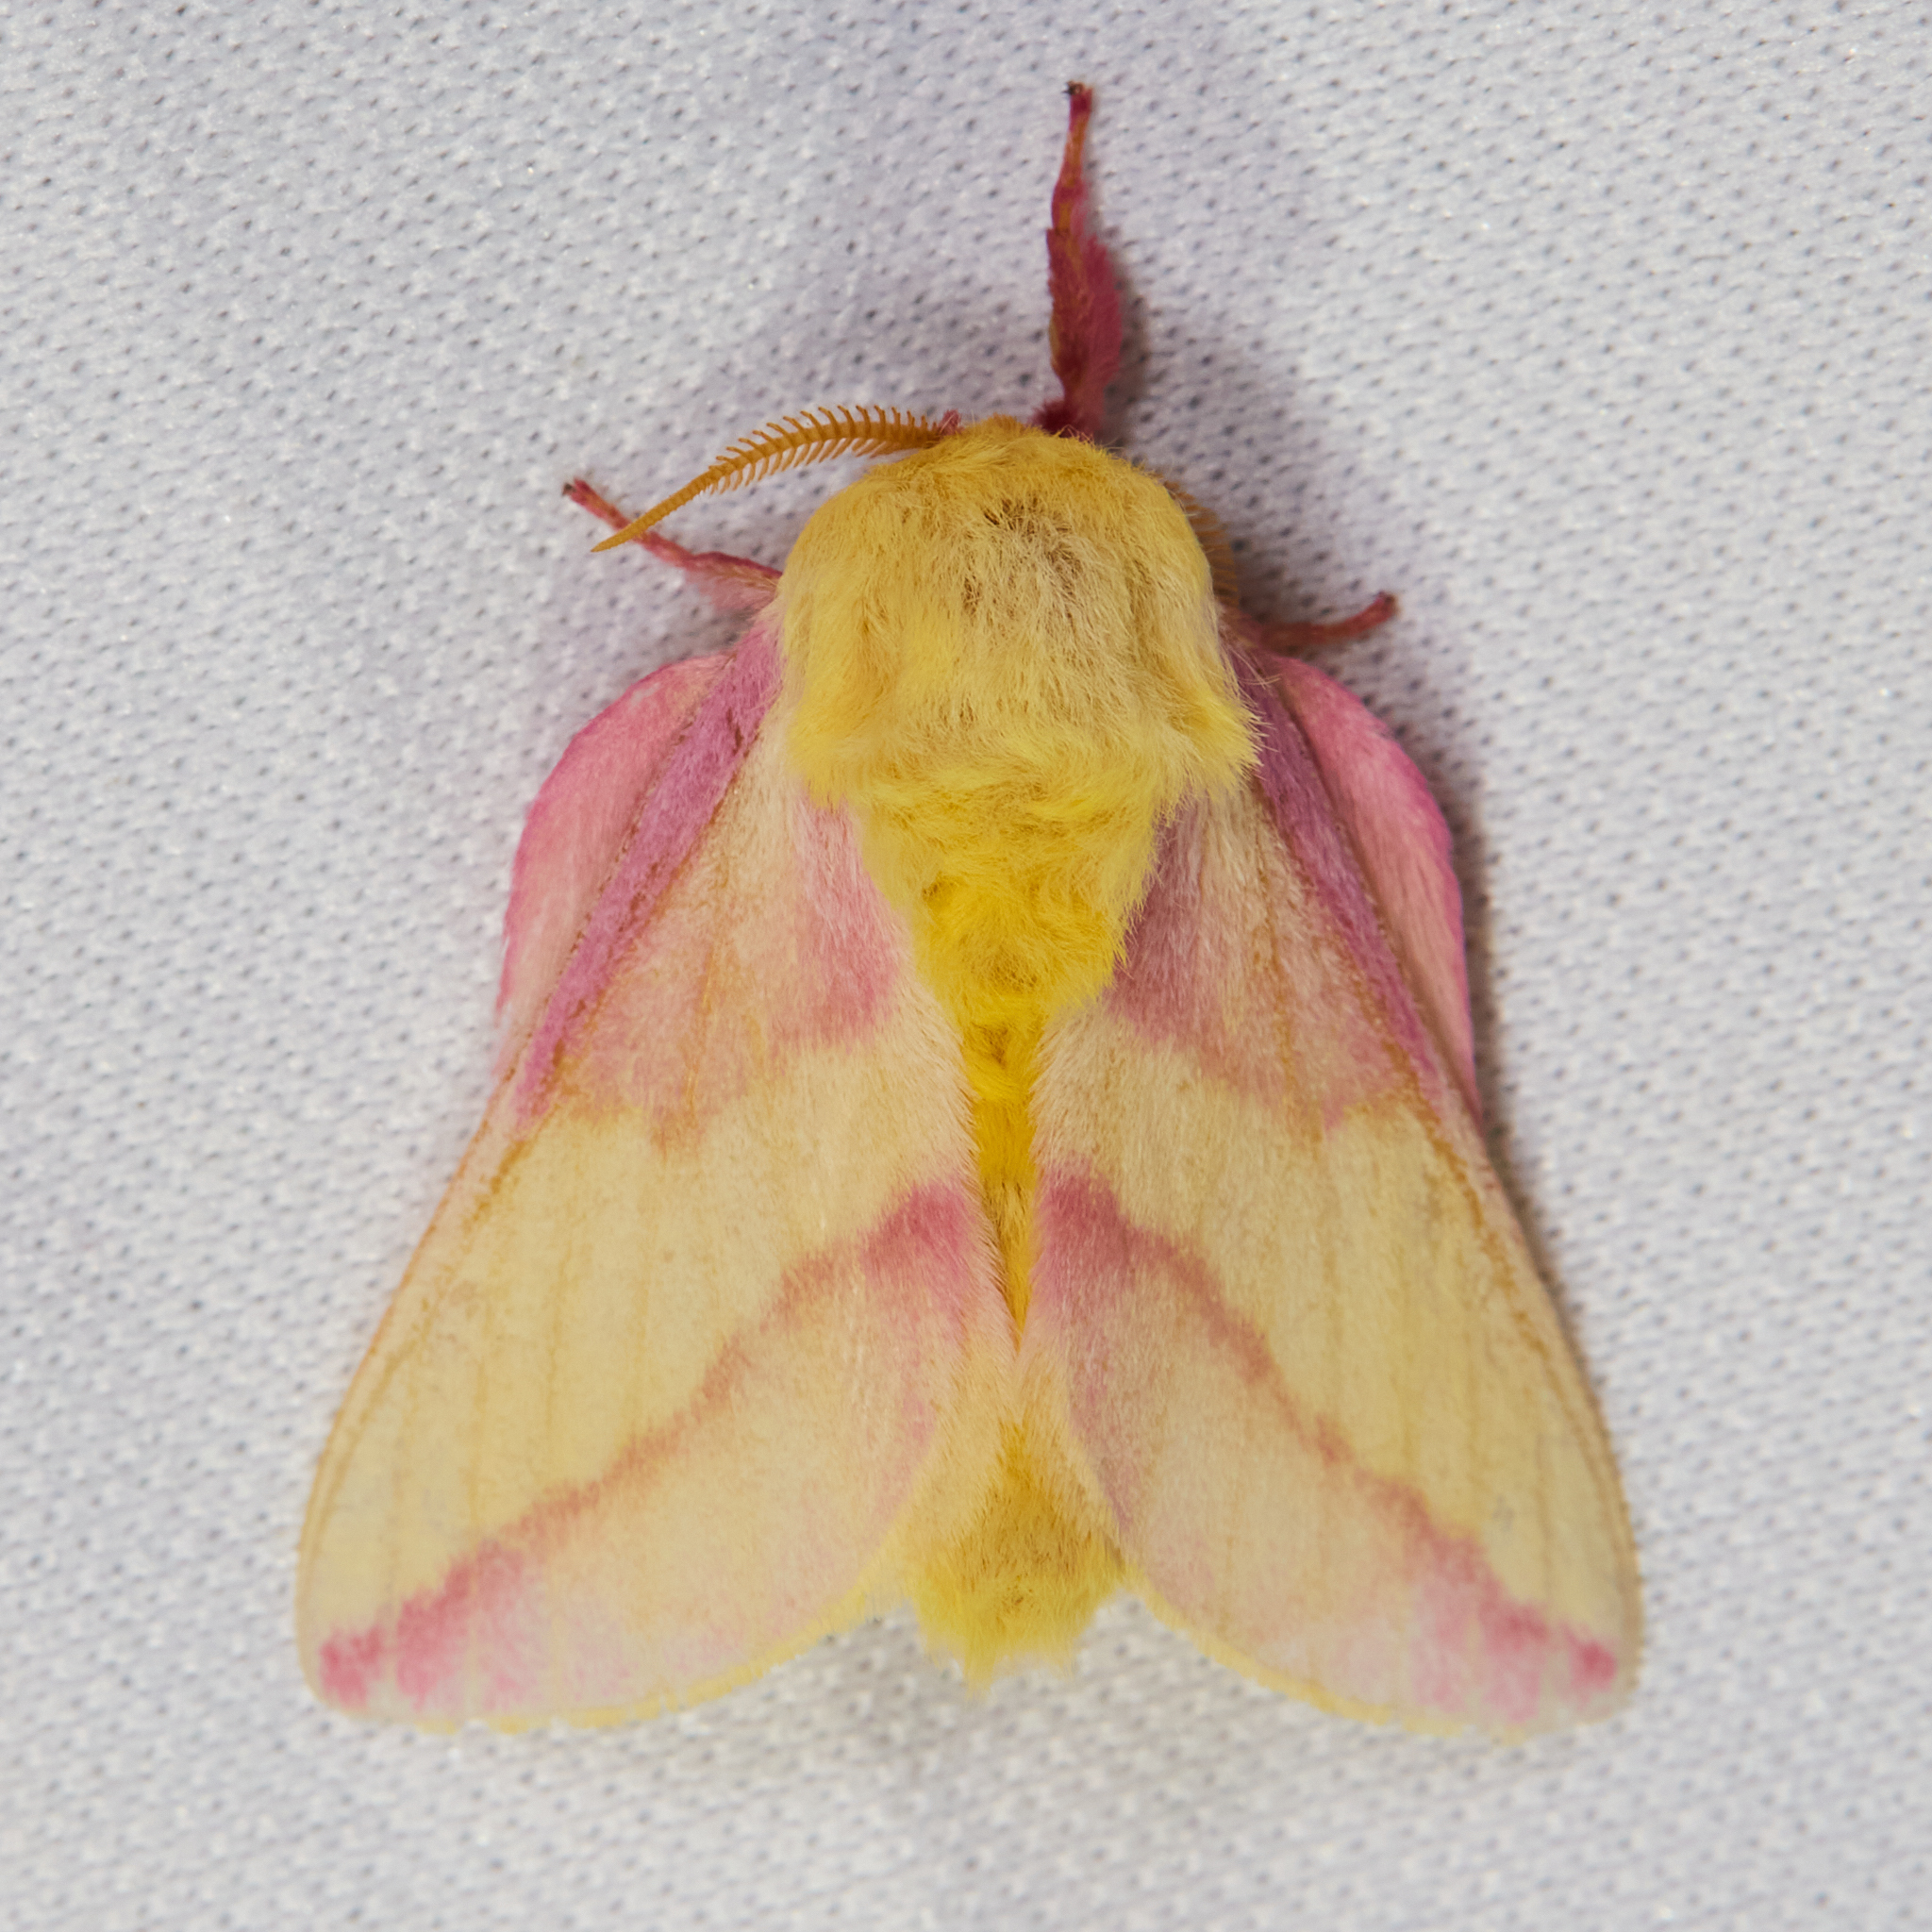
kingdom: Animalia
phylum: Arthropoda
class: Insecta
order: Lepidoptera
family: Saturniidae
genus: Dryocampa
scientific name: Dryocampa rubicunda
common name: Rosy maple moth
